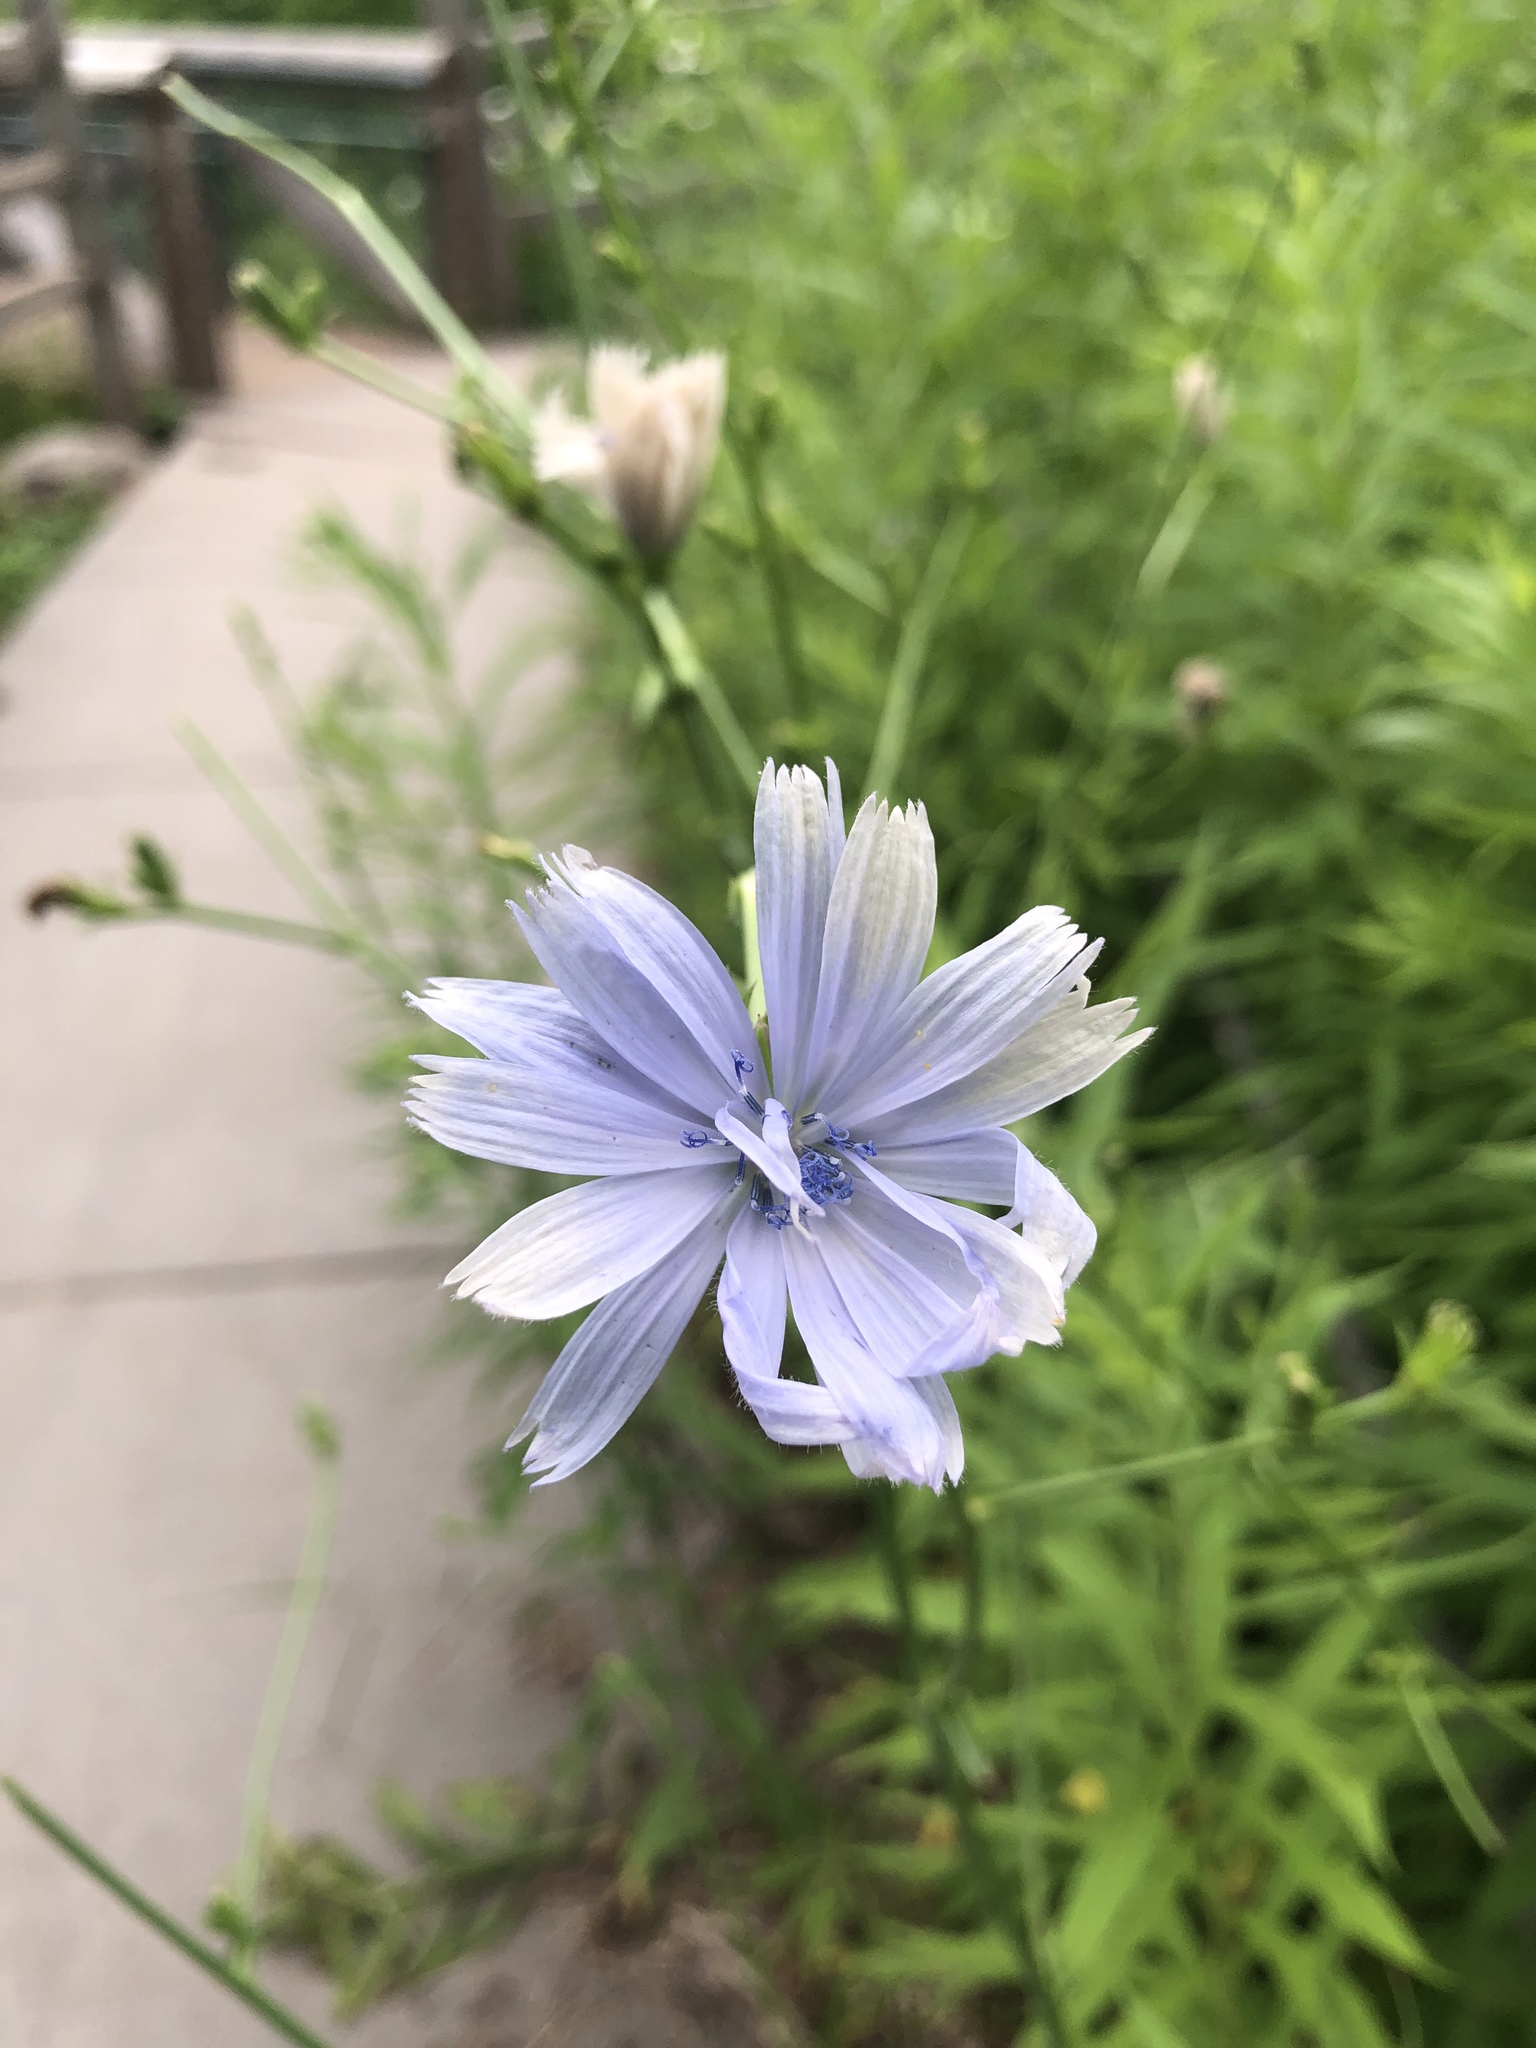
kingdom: Plantae
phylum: Tracheophyta
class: Magnoliopsida
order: Asterales
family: Asteraceae
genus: Cichorium
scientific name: Cichorium intybus
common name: Chicory
